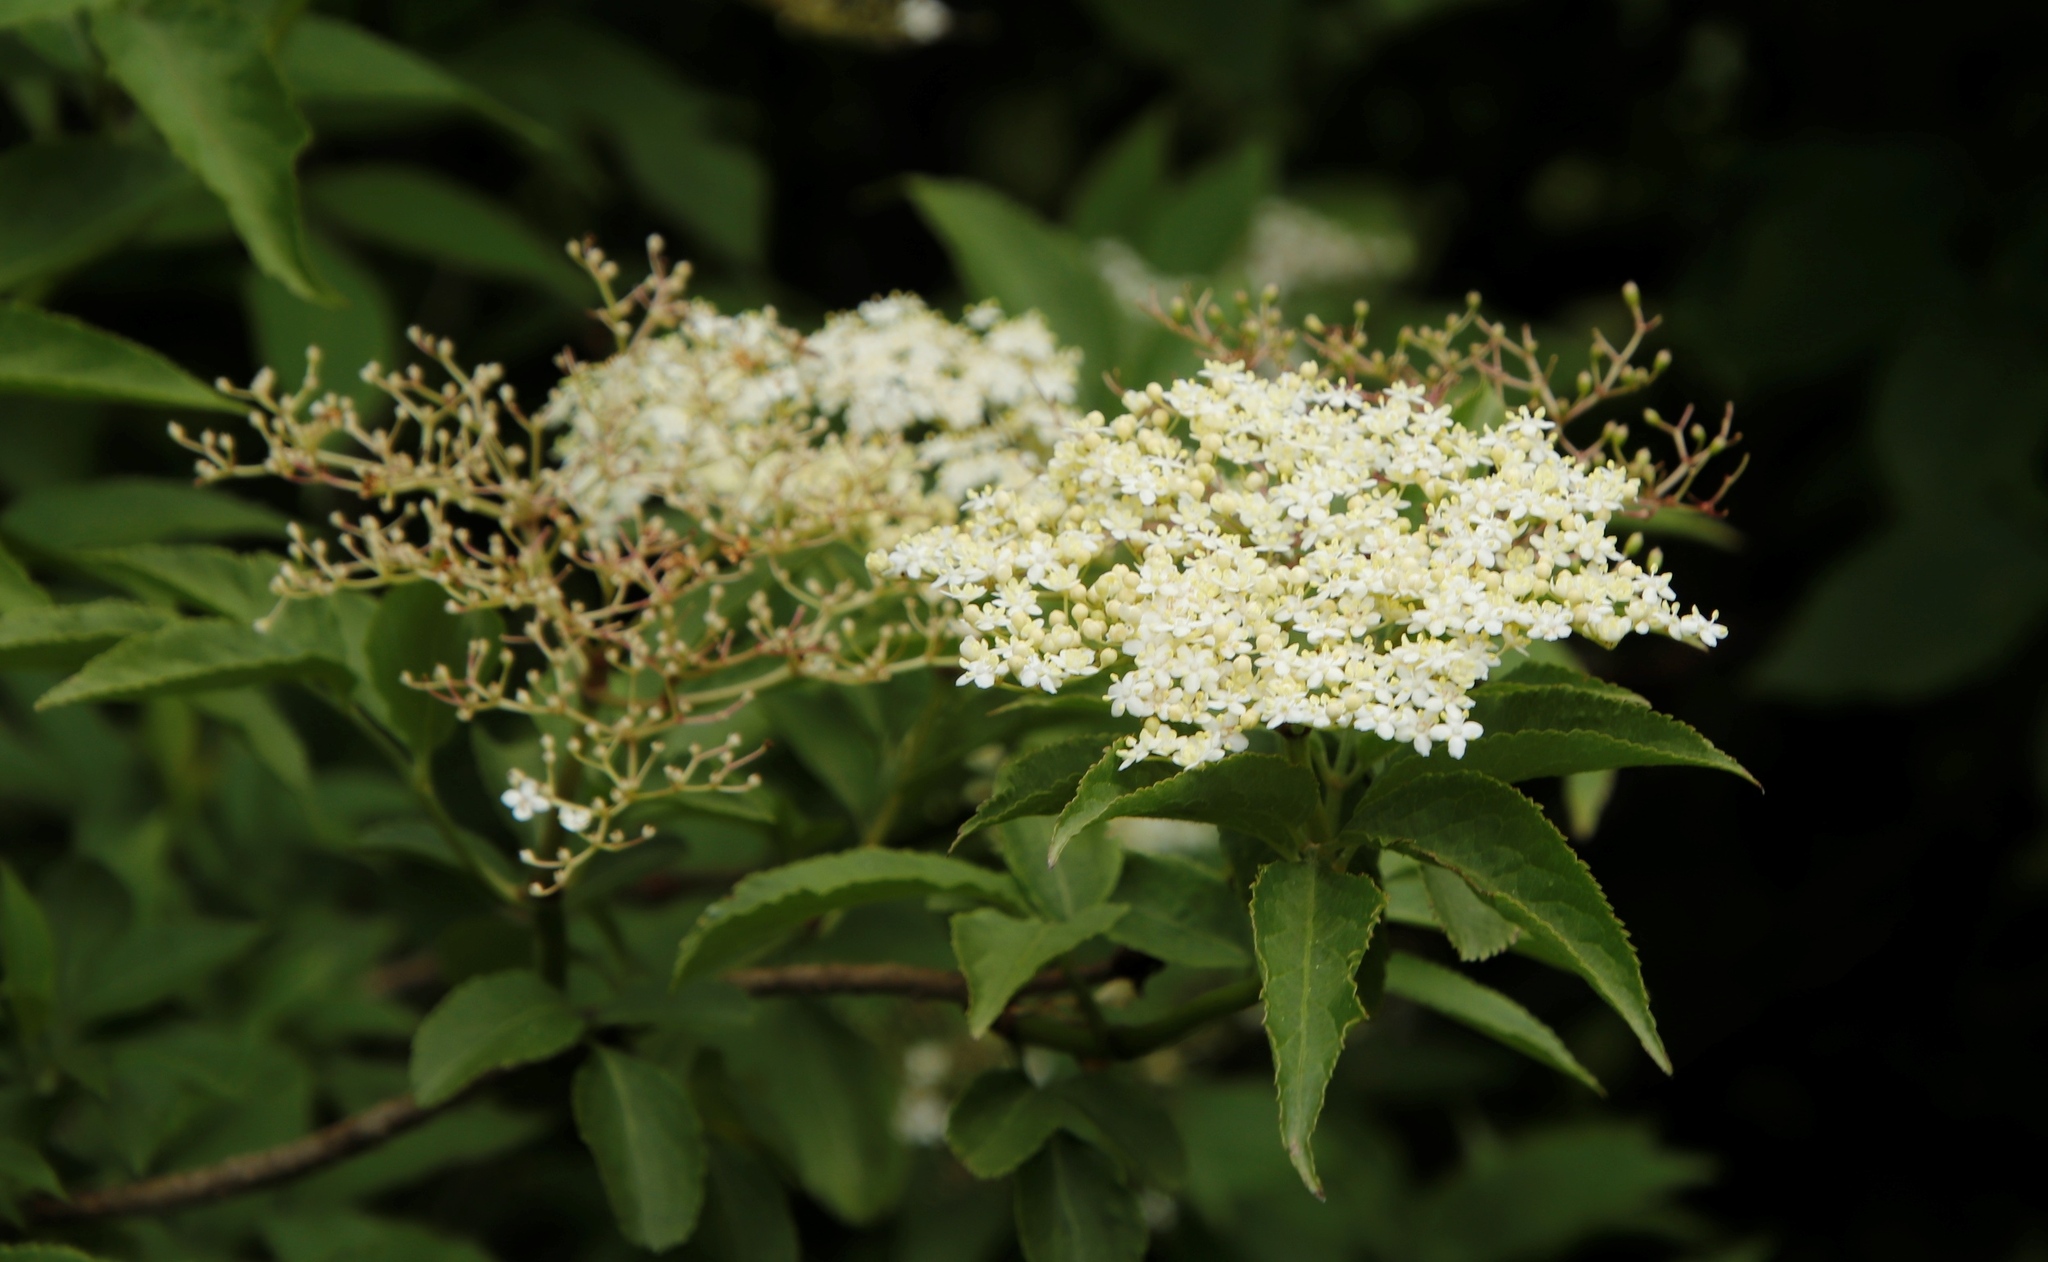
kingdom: Plantae
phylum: Tracheophyta
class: Magnoliopsida
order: Dipsacales
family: Viburnaceae
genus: Sambucus
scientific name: Sambucus nigra
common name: Elder
